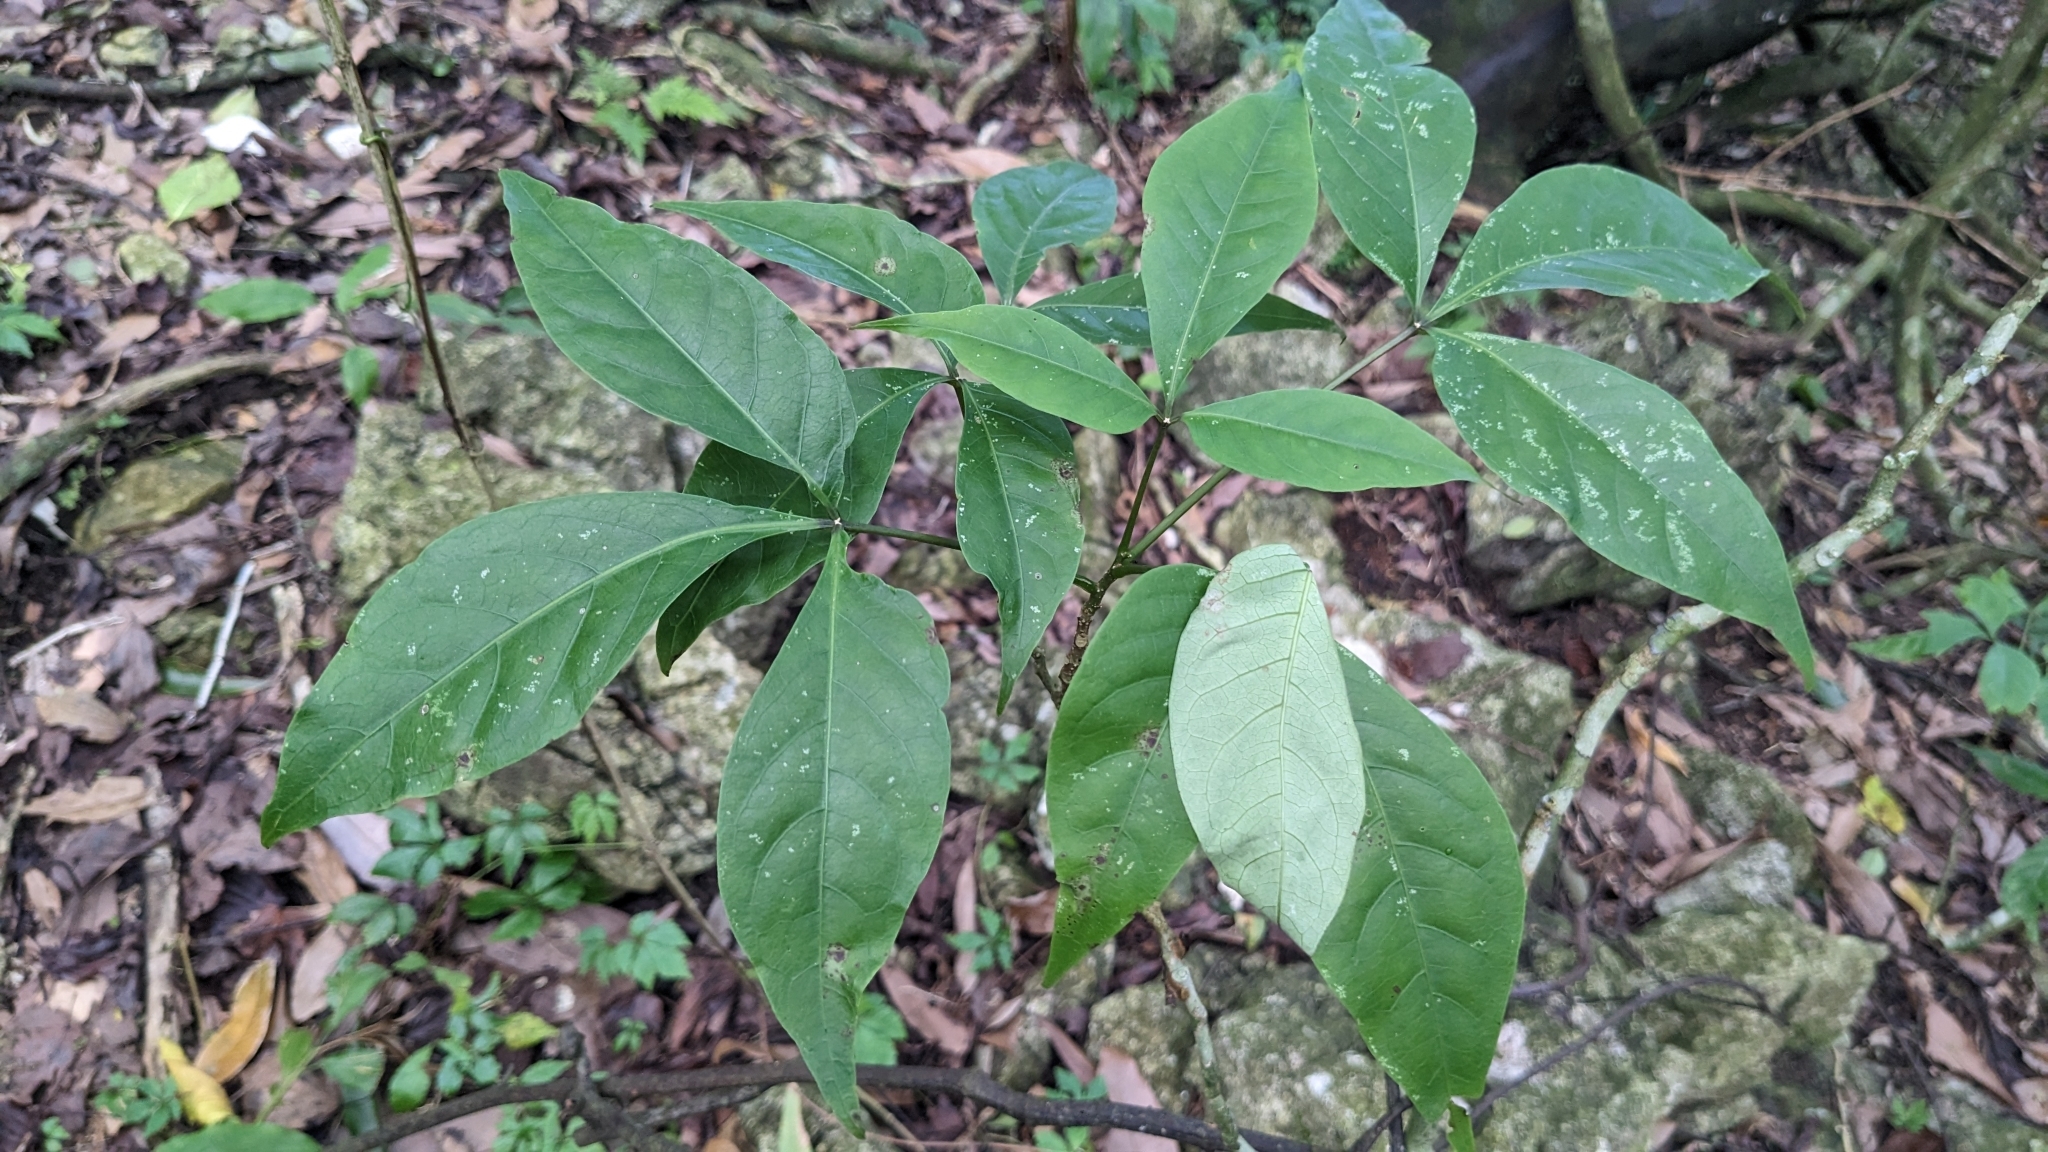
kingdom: Plantae
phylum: Tracheophyta
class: Magnoliopsida
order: Brassicales
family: Capparaceae
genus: Crateva
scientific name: Crateva adansonii
